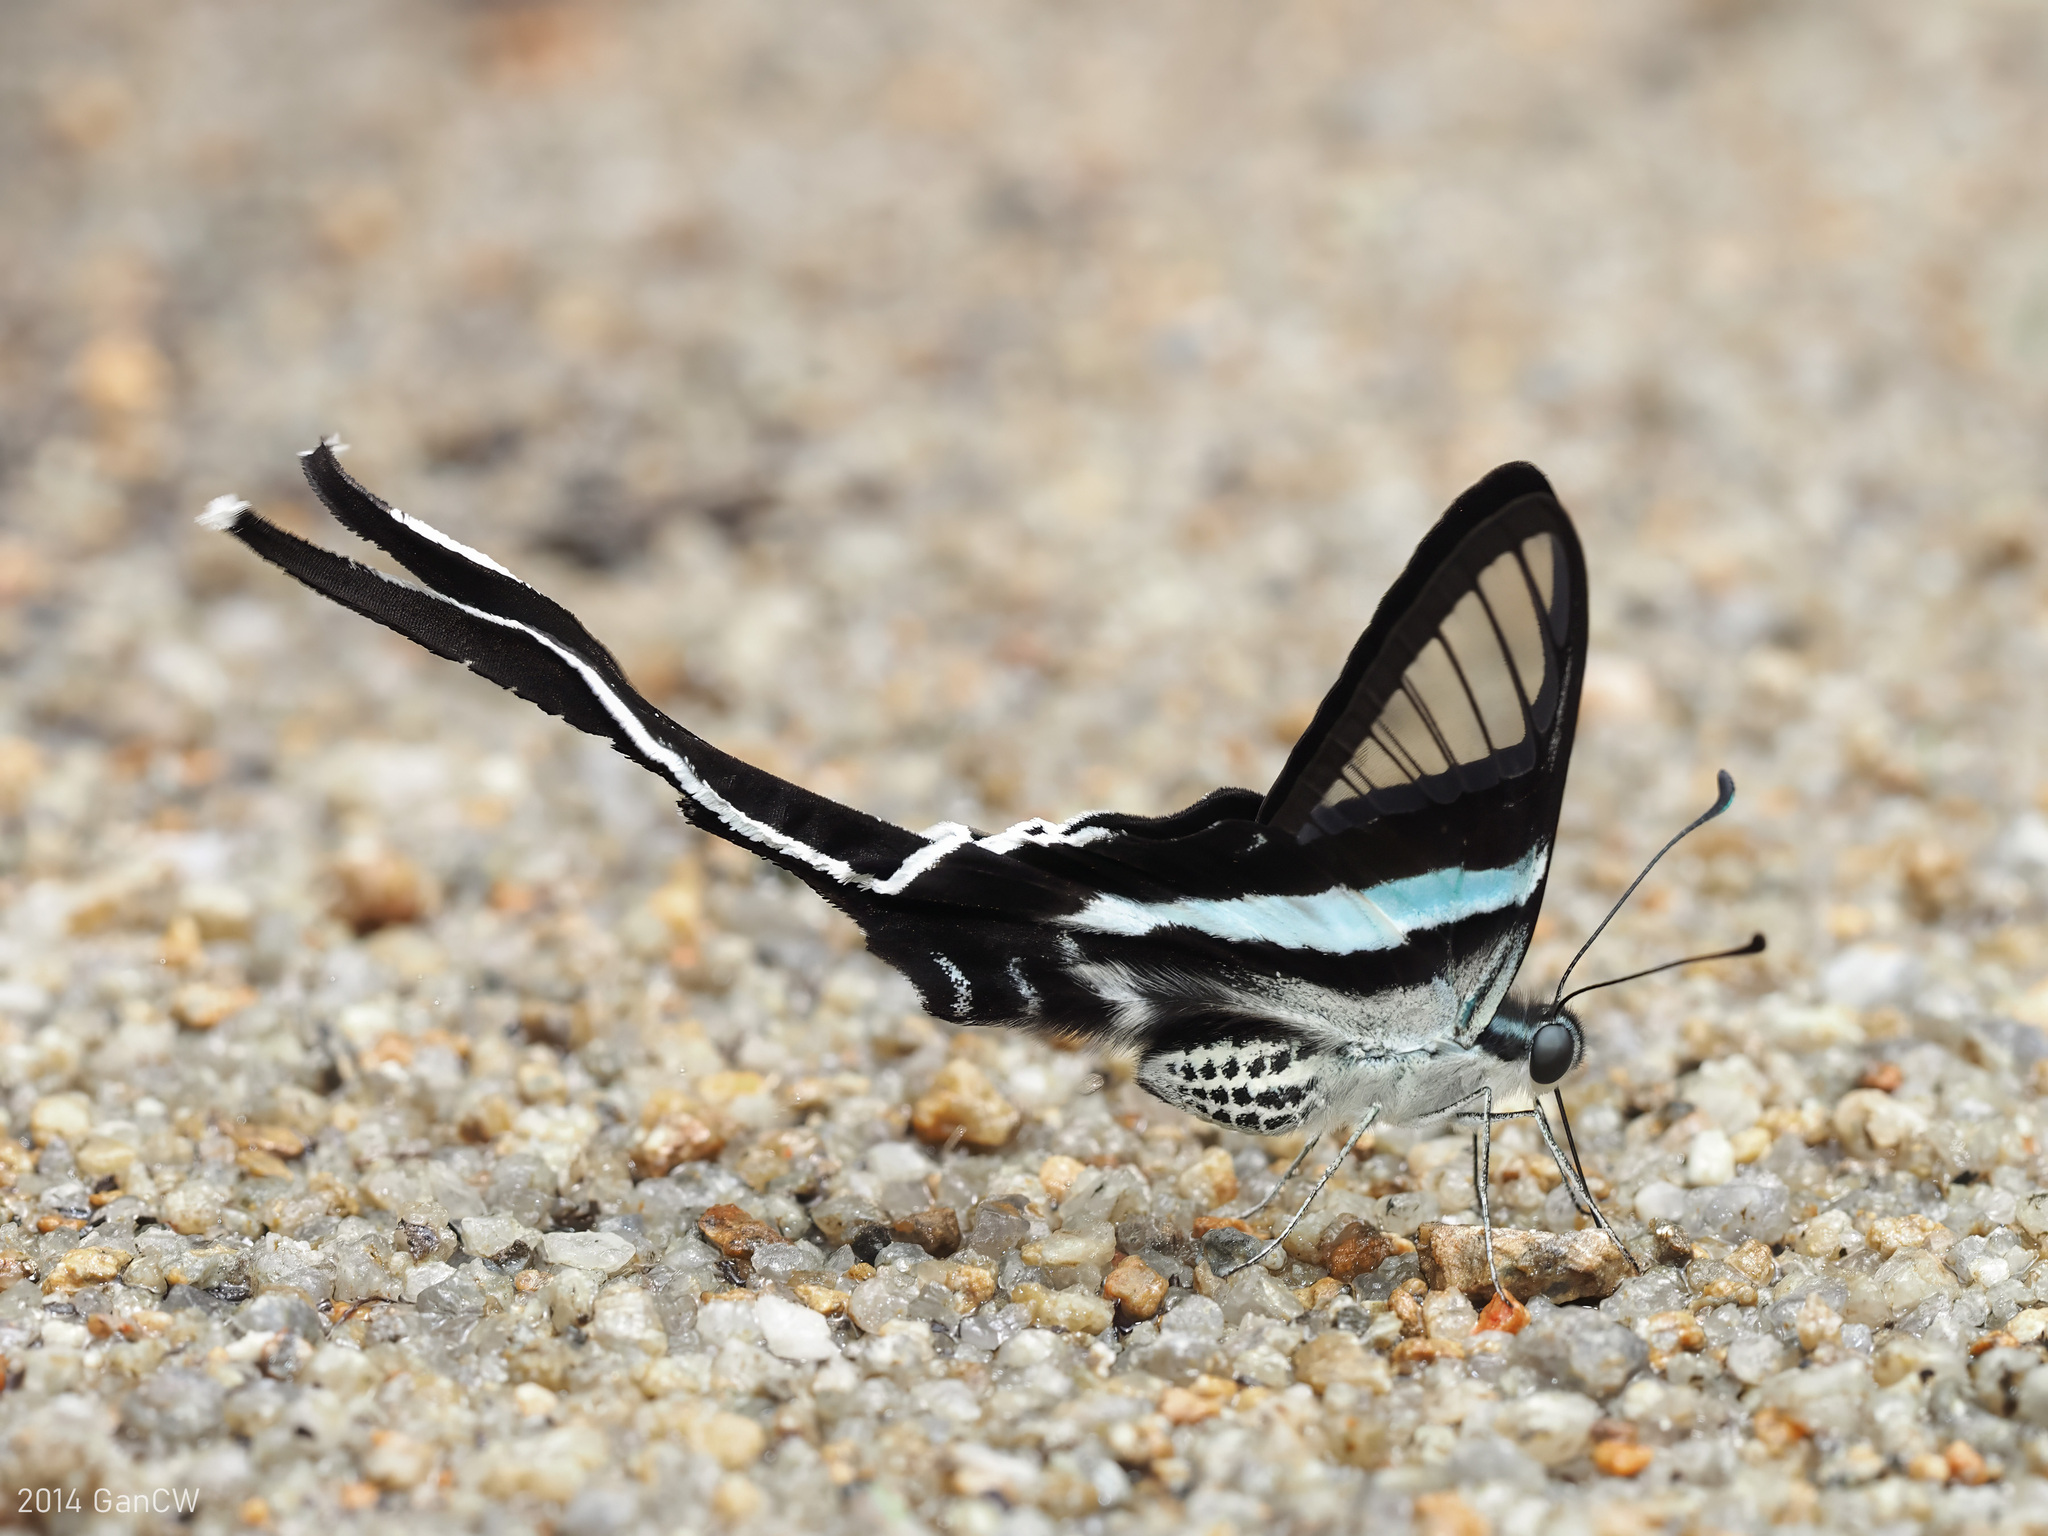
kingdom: Animalia
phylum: Arthropoda
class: Insecta
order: Lepidoptera
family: Papilionidae
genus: Lamproptera
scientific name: Lamproptera meges
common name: Green dragontail
